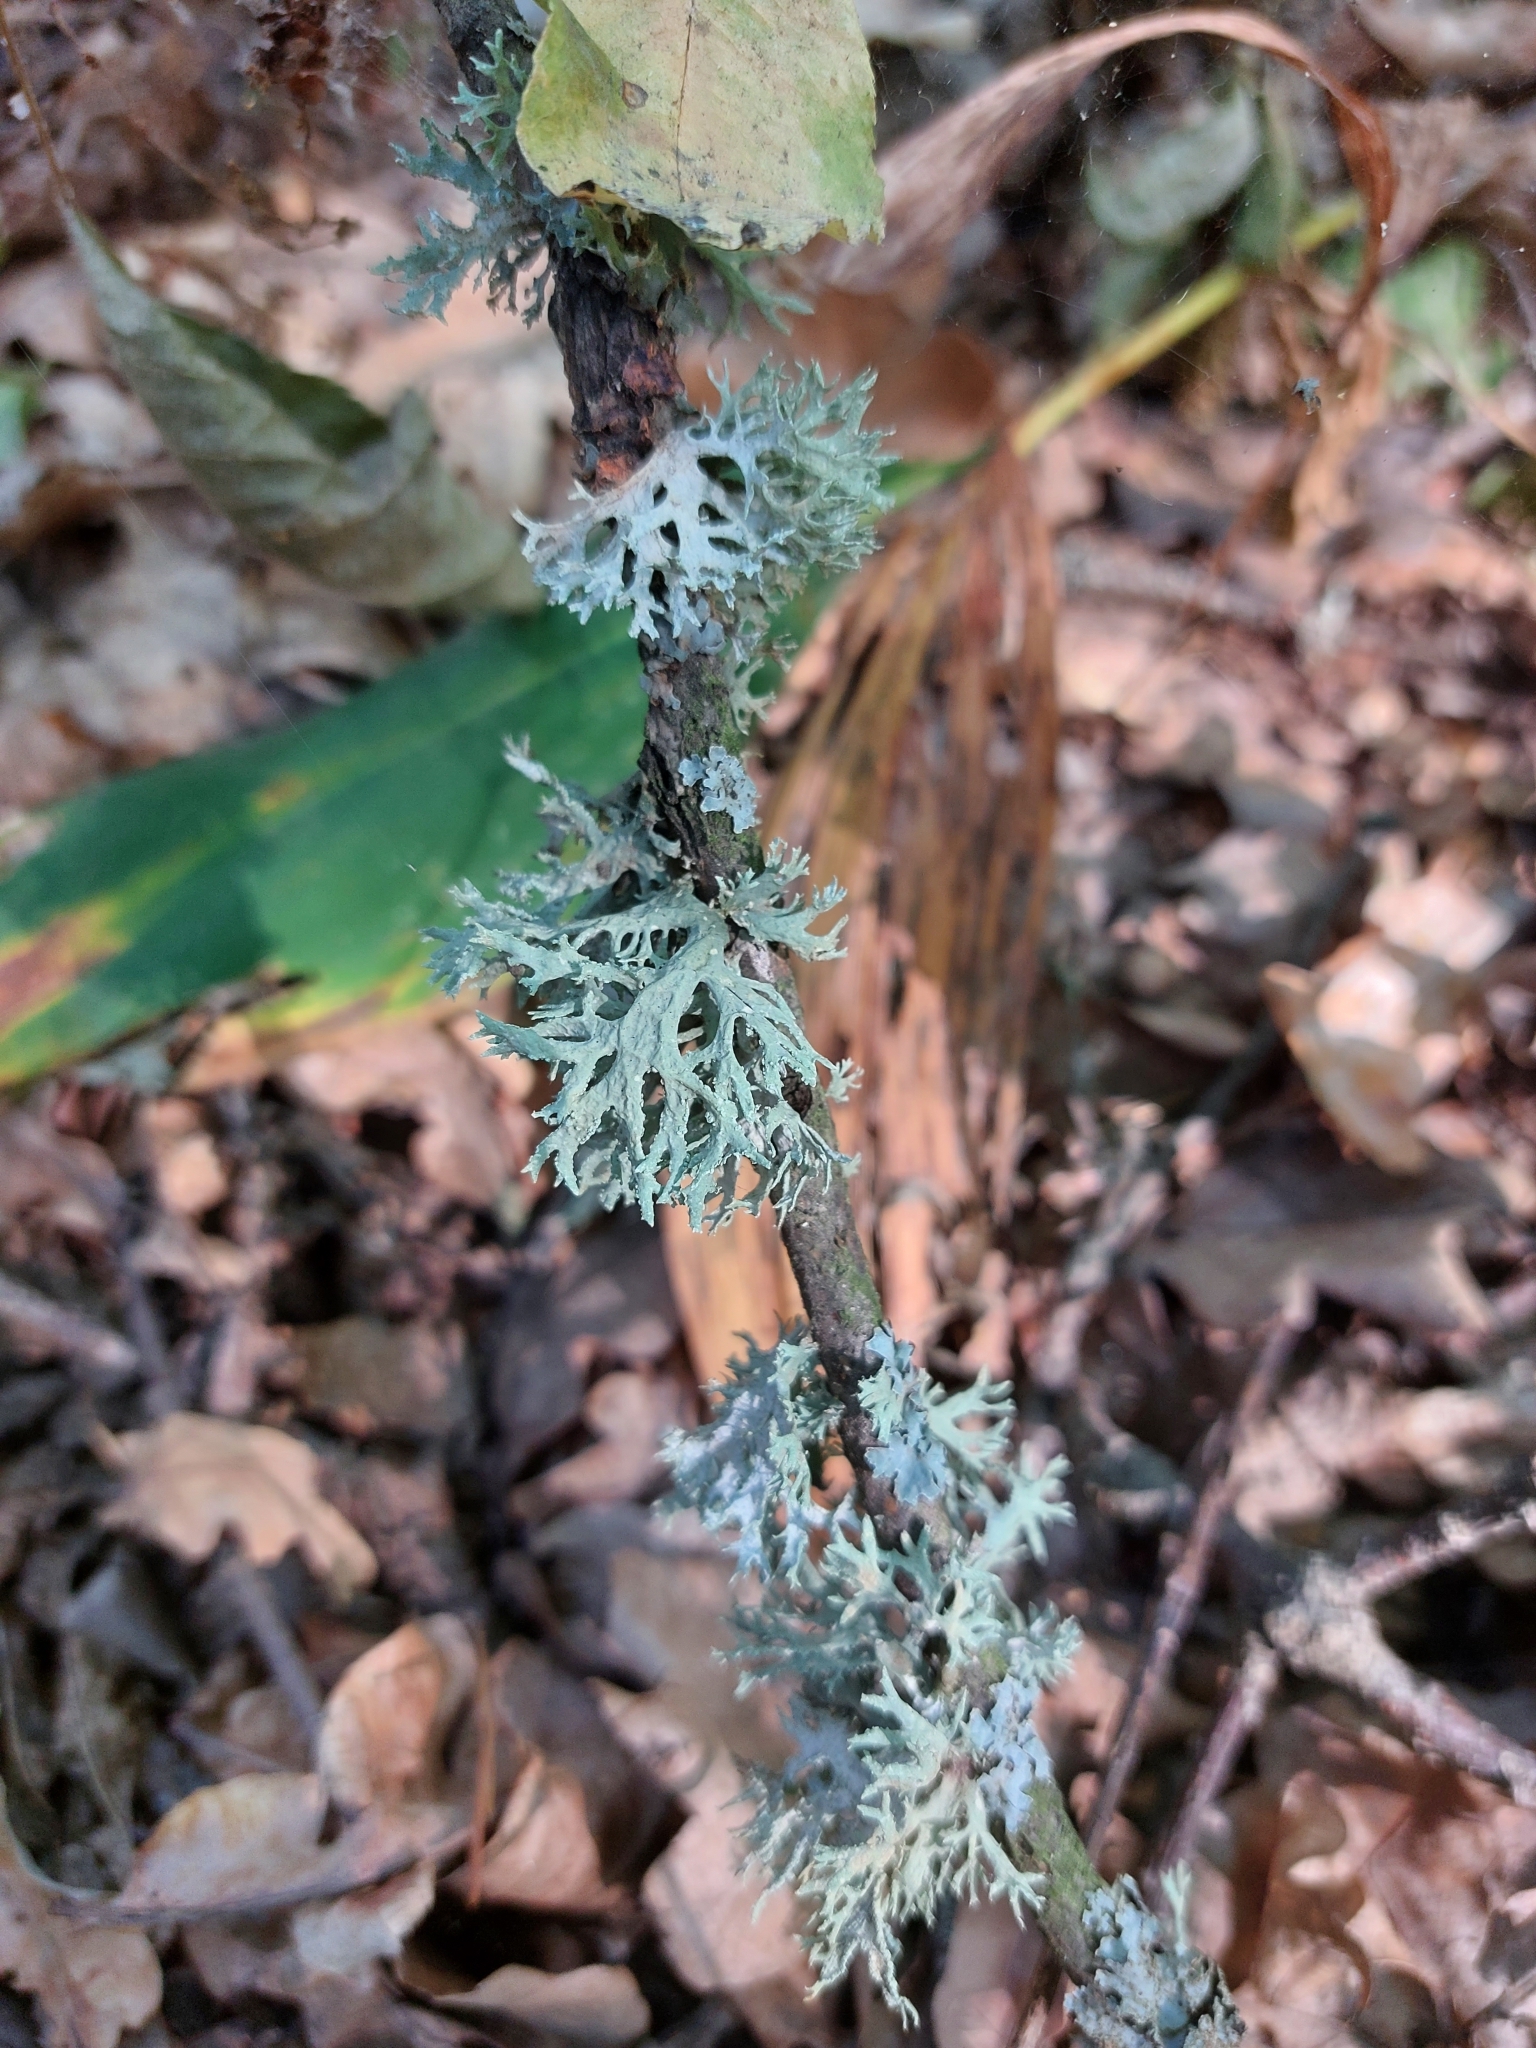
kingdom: Fungi
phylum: Ascomycota
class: Lecanoromycetes
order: Lecanorales
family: Parmeliaceae
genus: Evernia
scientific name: Evernia prunastri
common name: Oak moss
